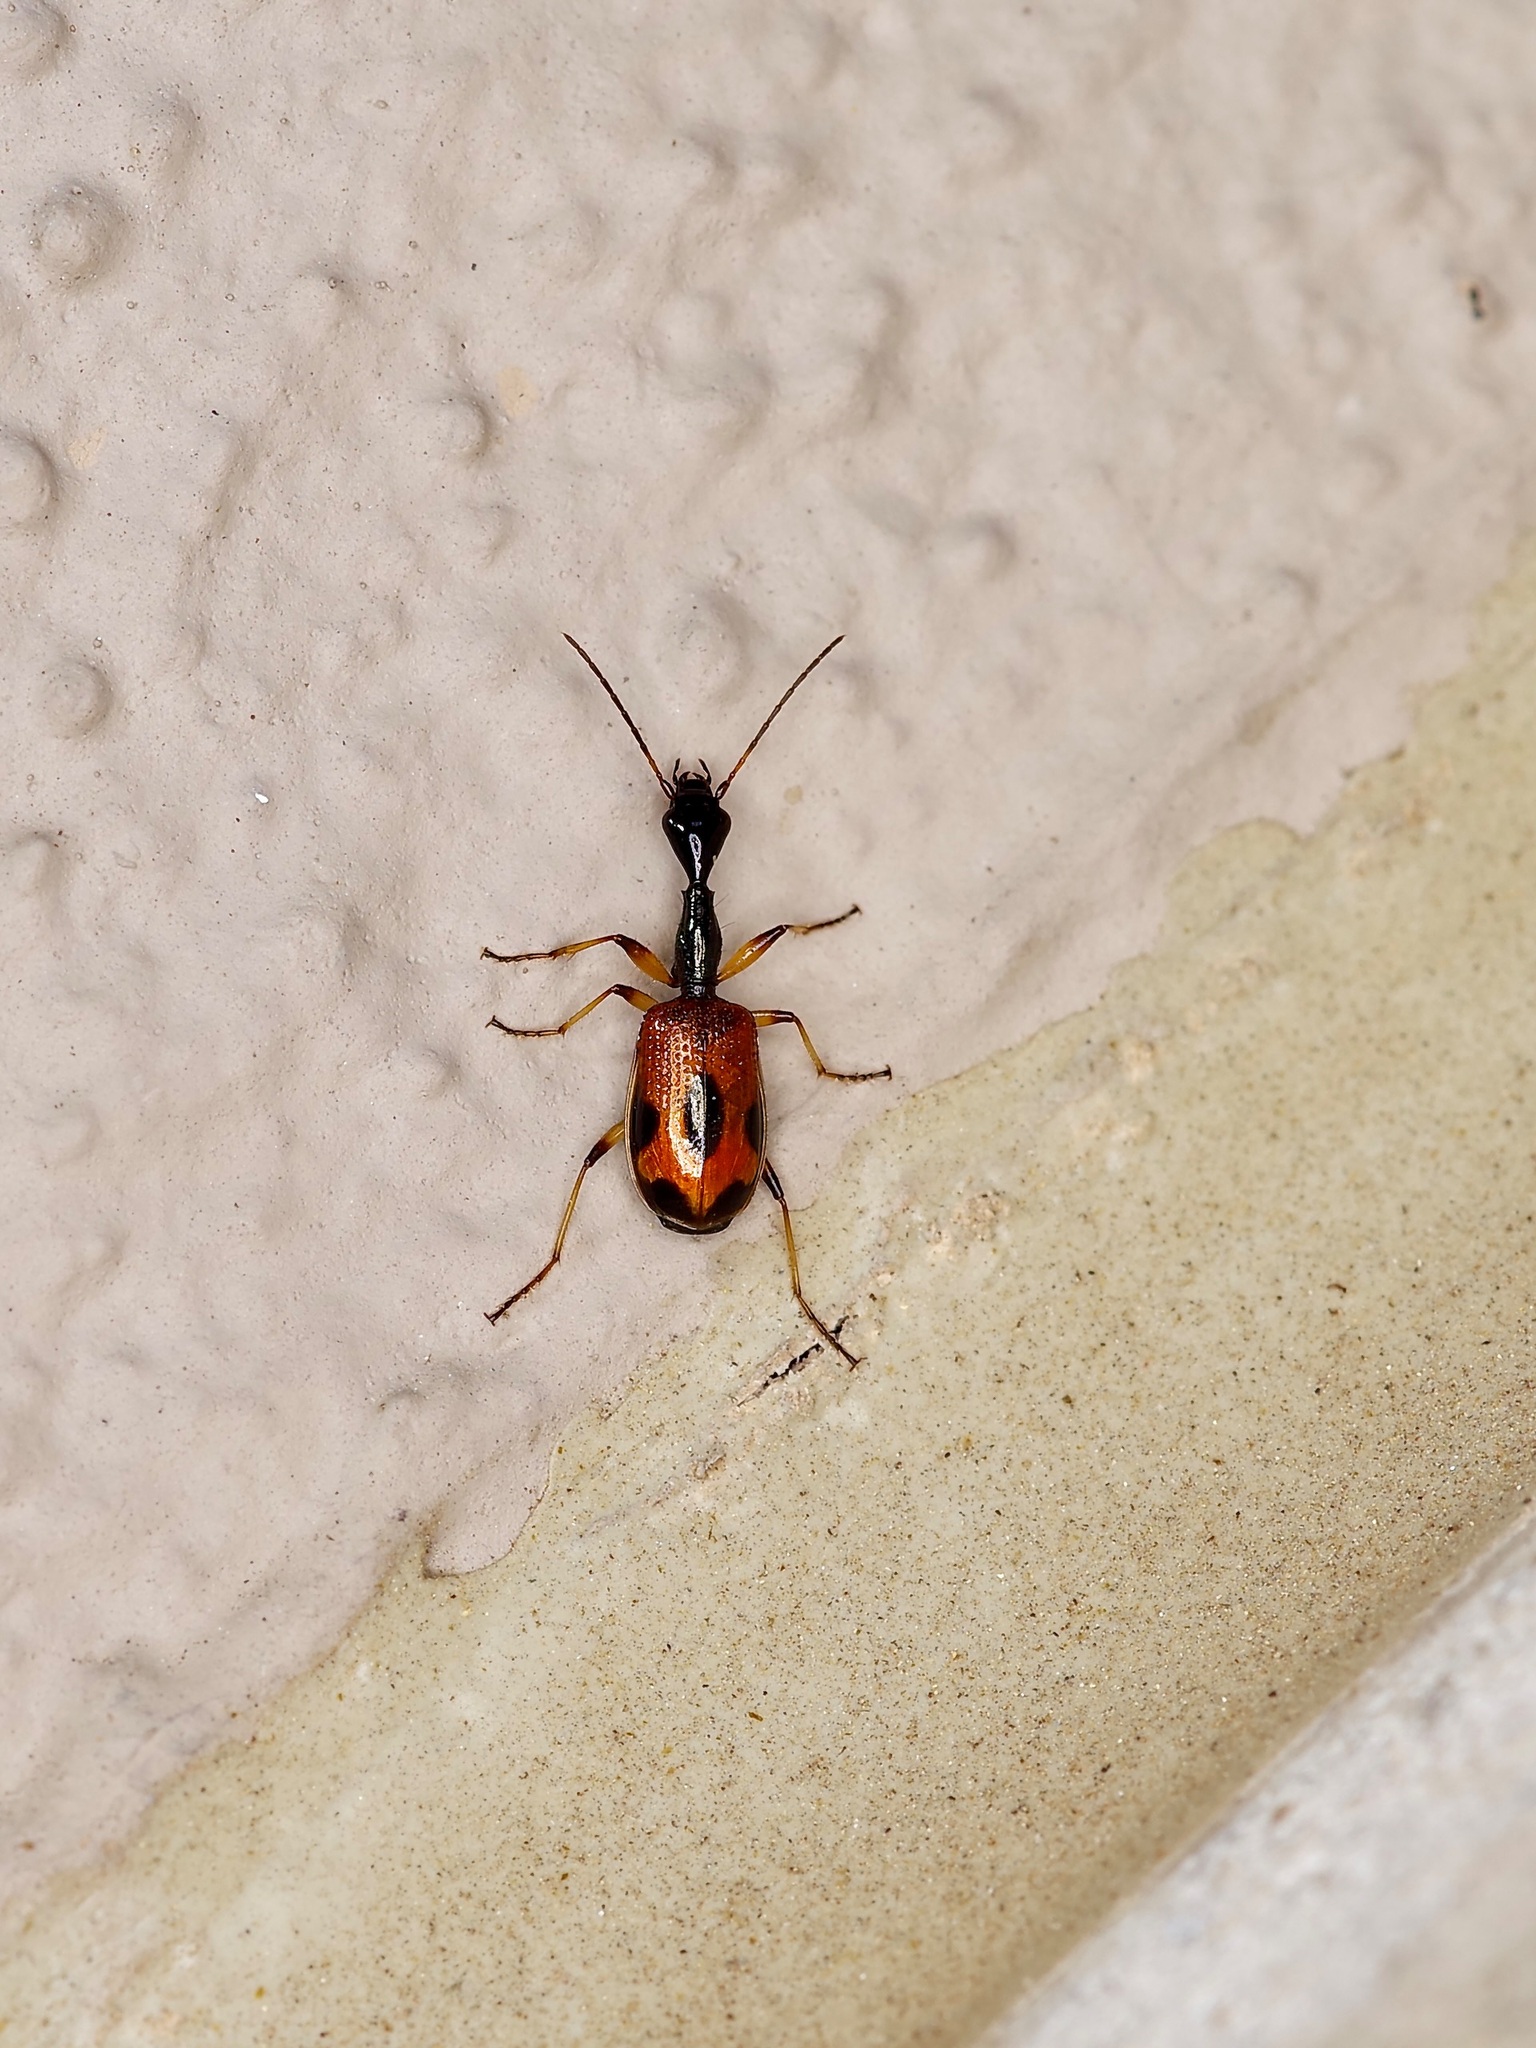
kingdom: Animalia
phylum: Arthropoda
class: Insecta
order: Coleoptera
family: Carabidae
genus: Colliuris
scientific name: Colliuris pensylvanica
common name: Long-necked ground beetle
